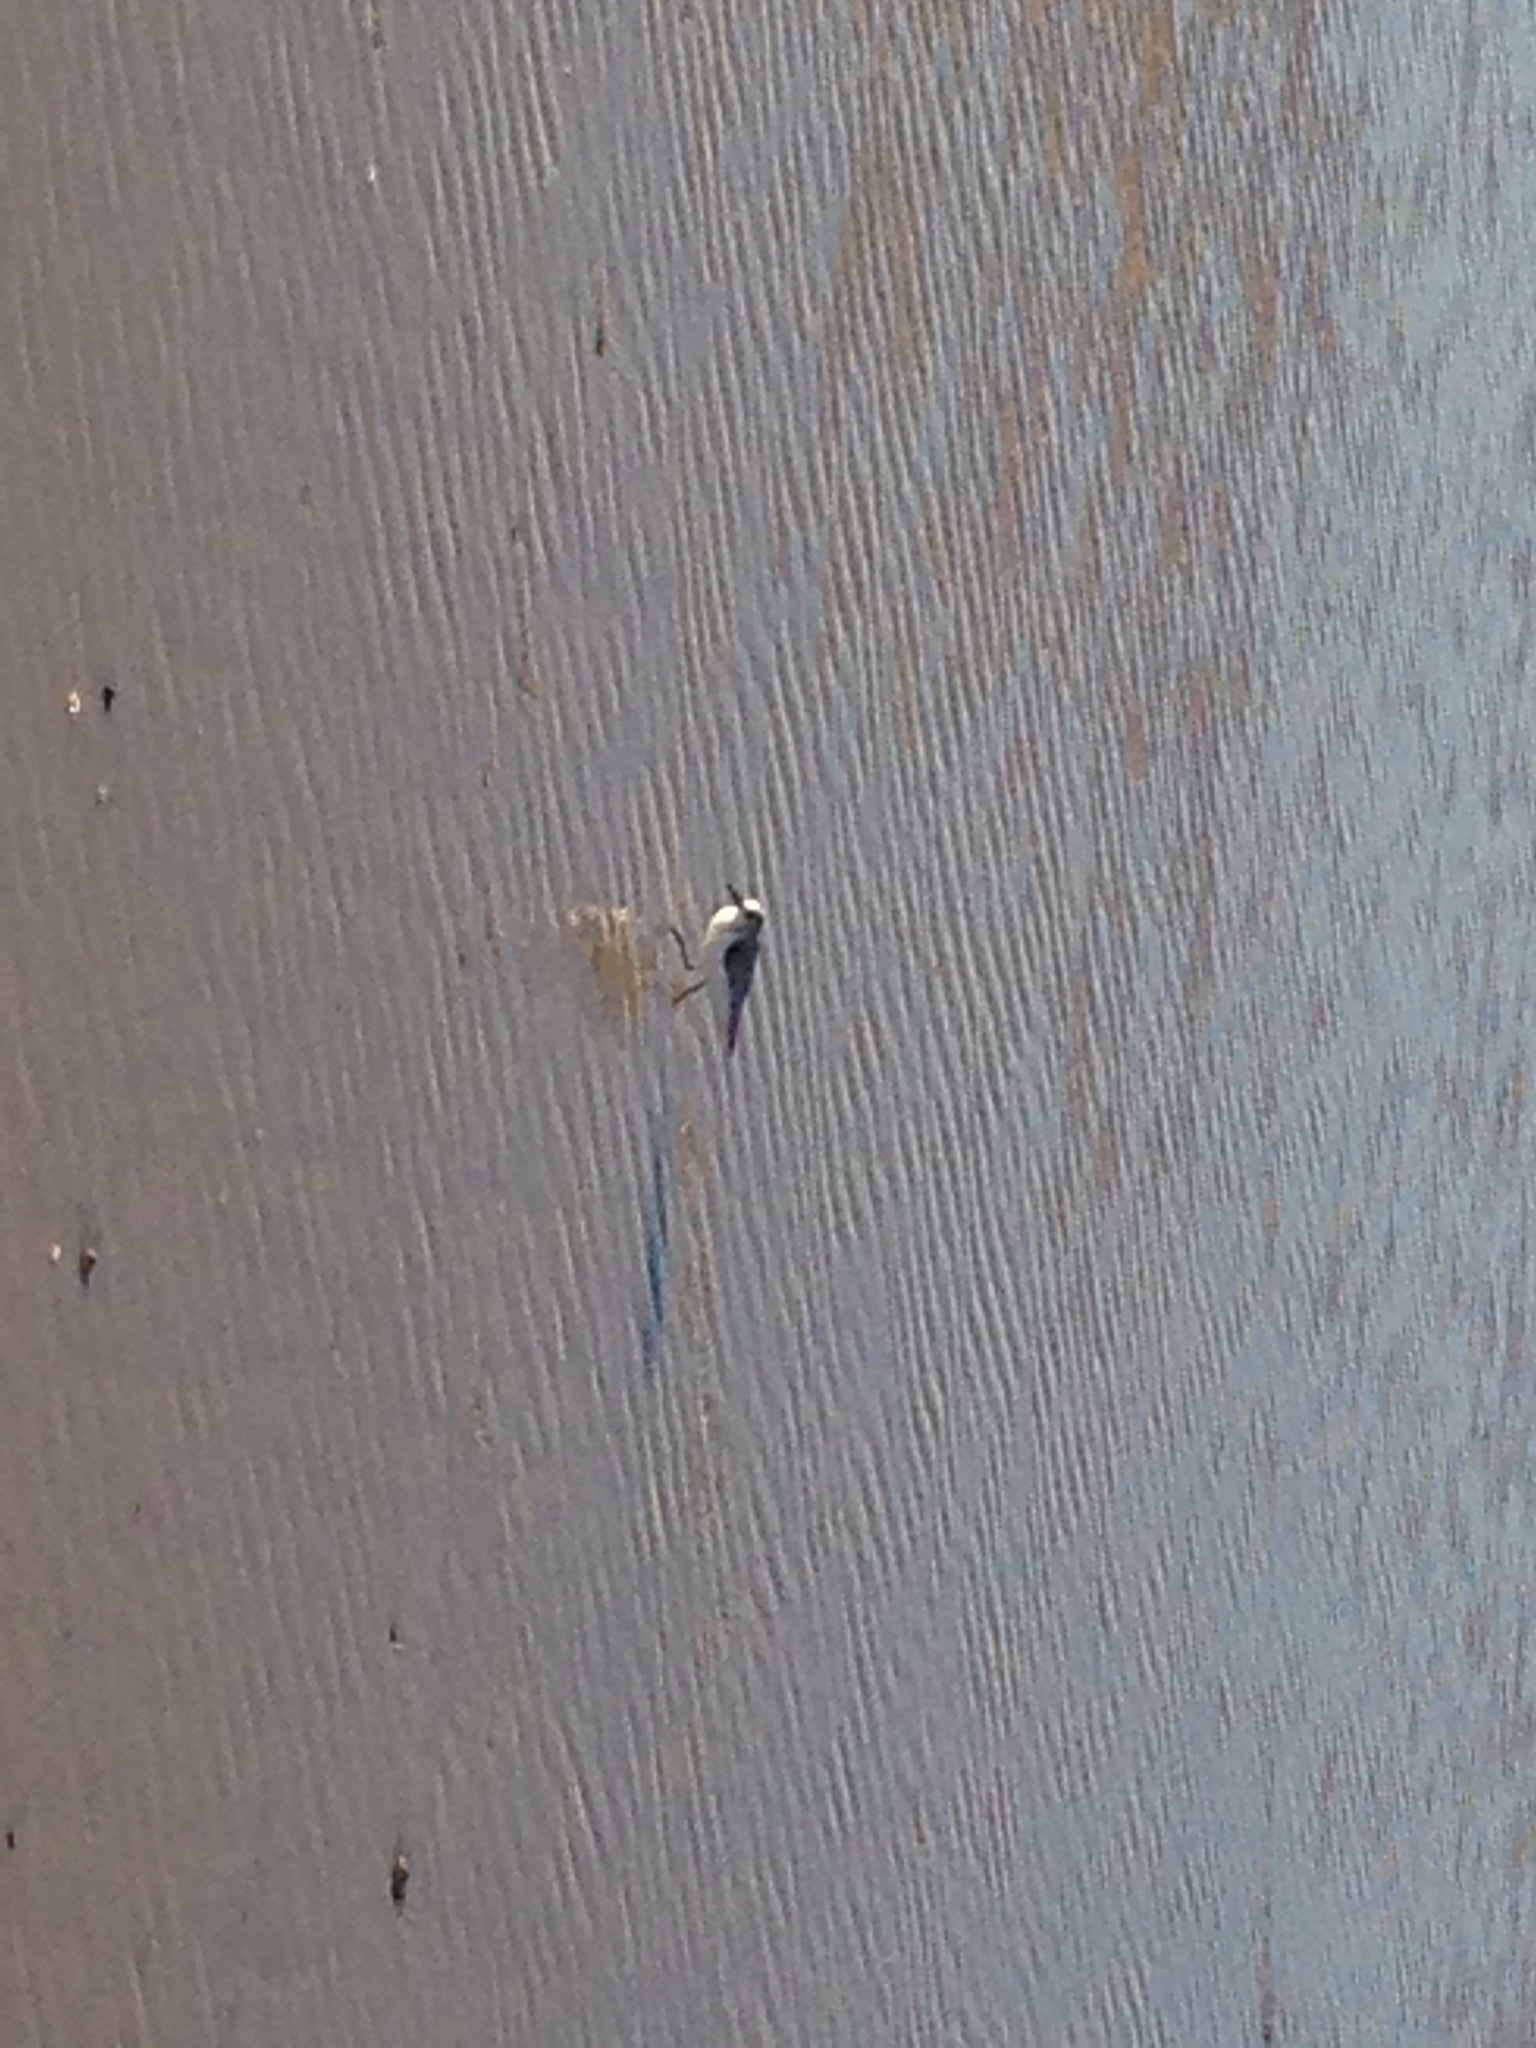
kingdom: Animalia
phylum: Chordata
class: Aves
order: Charadriiformes
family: Scolopacidae
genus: Calidris
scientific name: Calidris alba
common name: Sanderling
